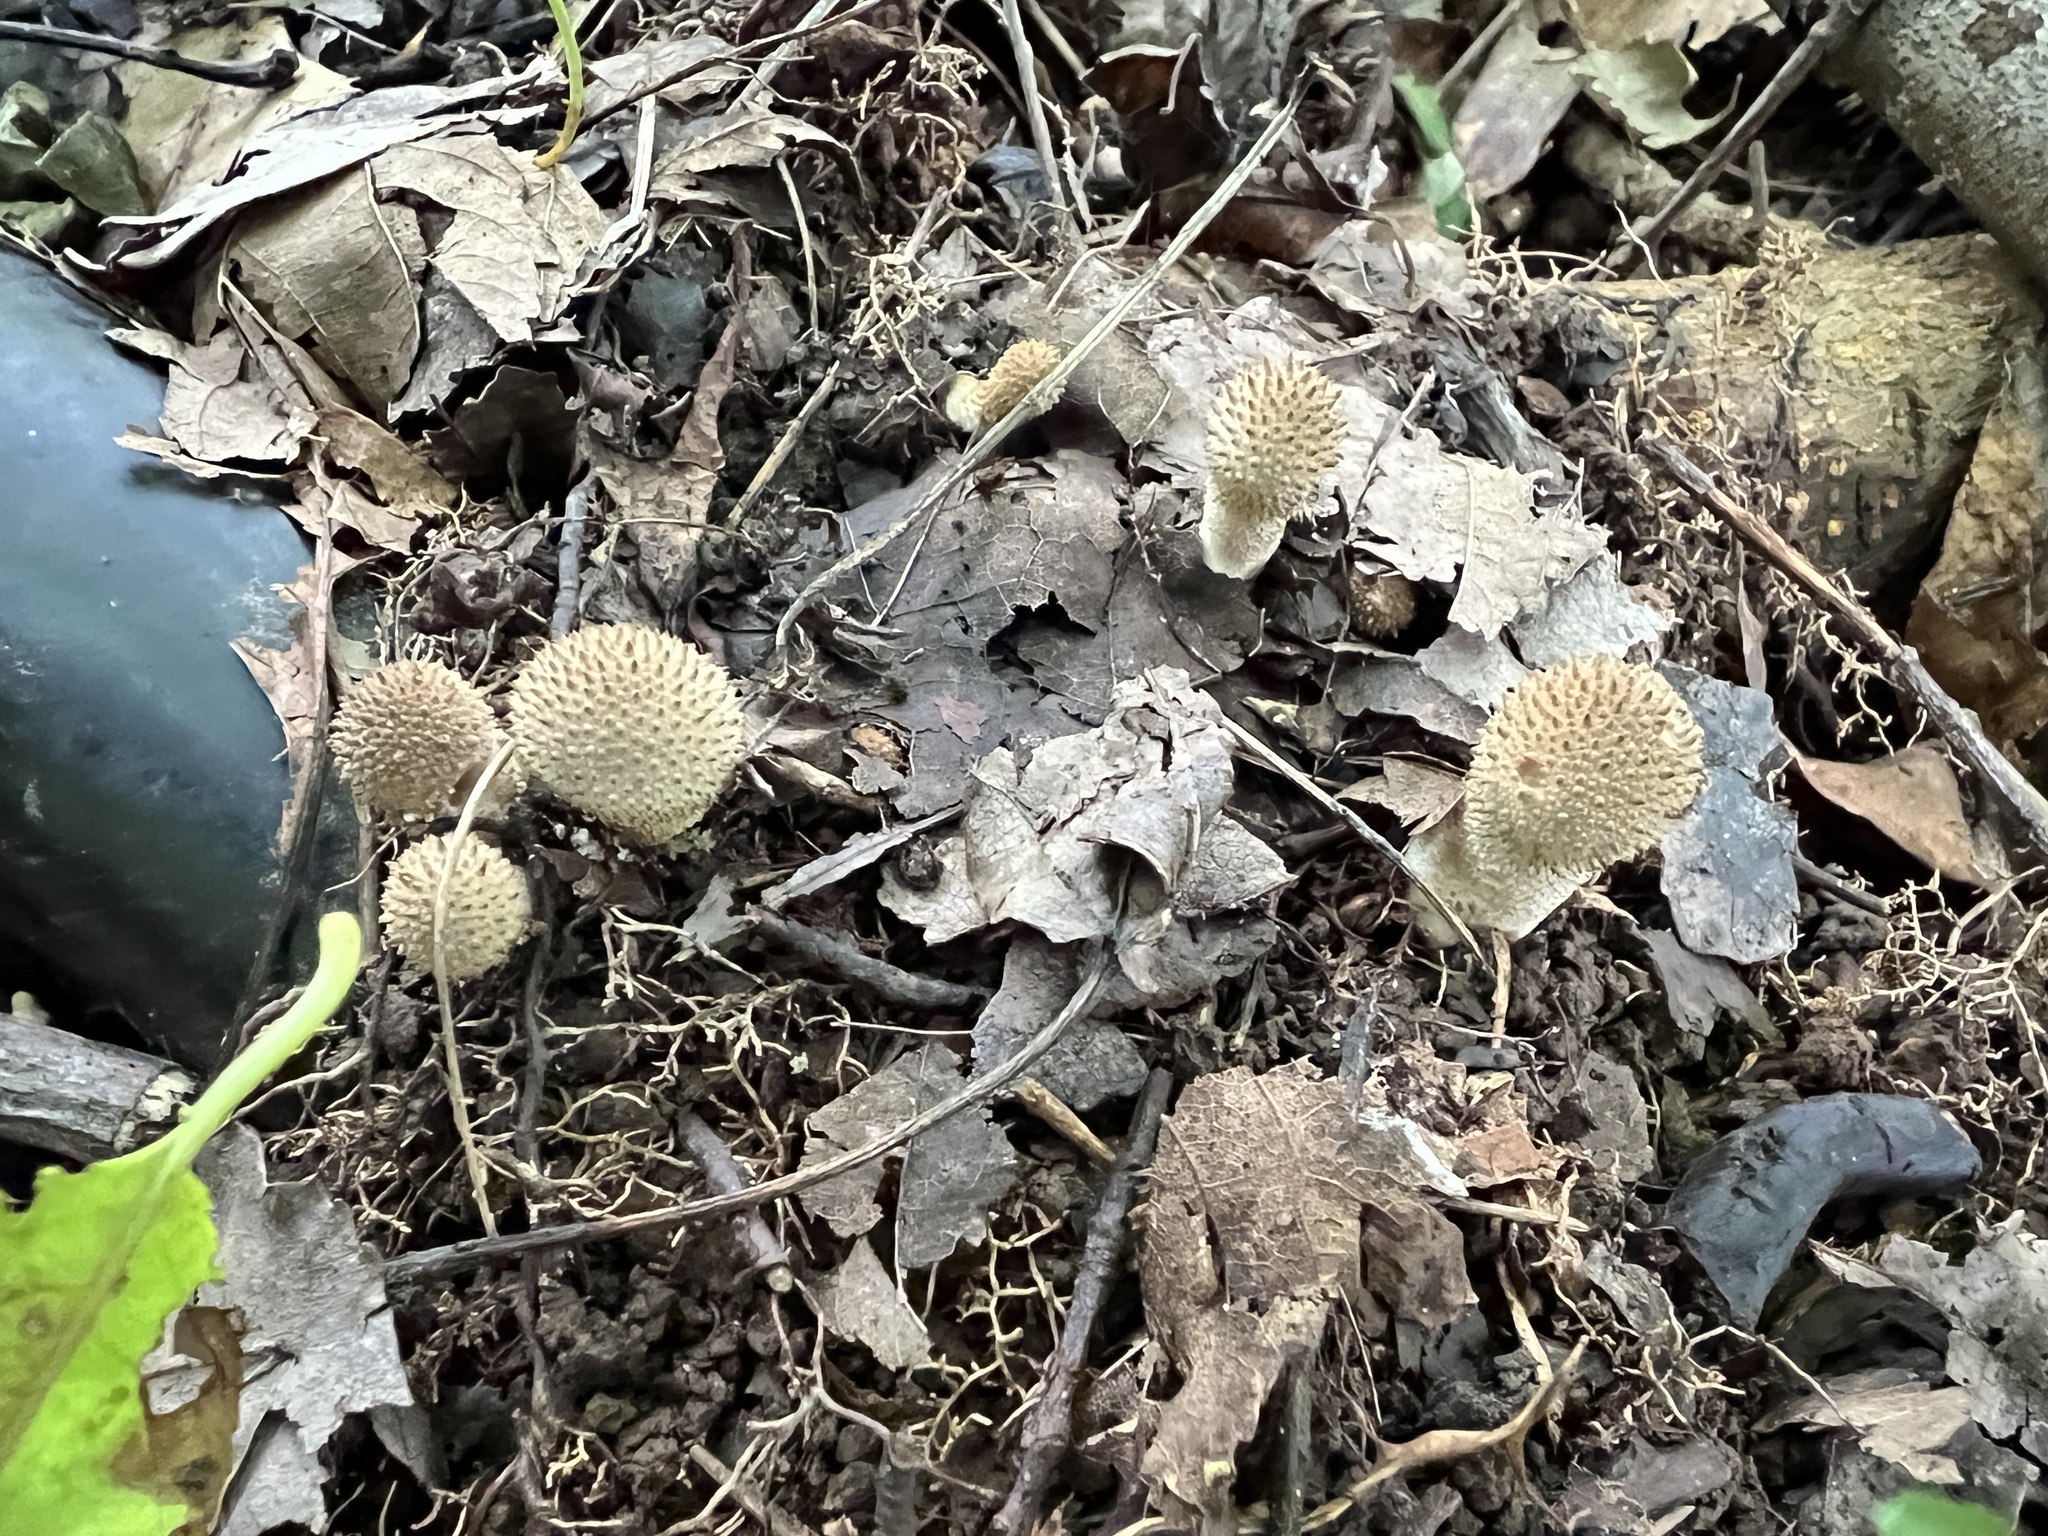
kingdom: Fungi
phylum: Basidiomycota
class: Agaricomycetes
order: Agaricales
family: Lycoperdaceae
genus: Lycoperdon
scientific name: Lycoperdon perlatum
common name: Common puffball
